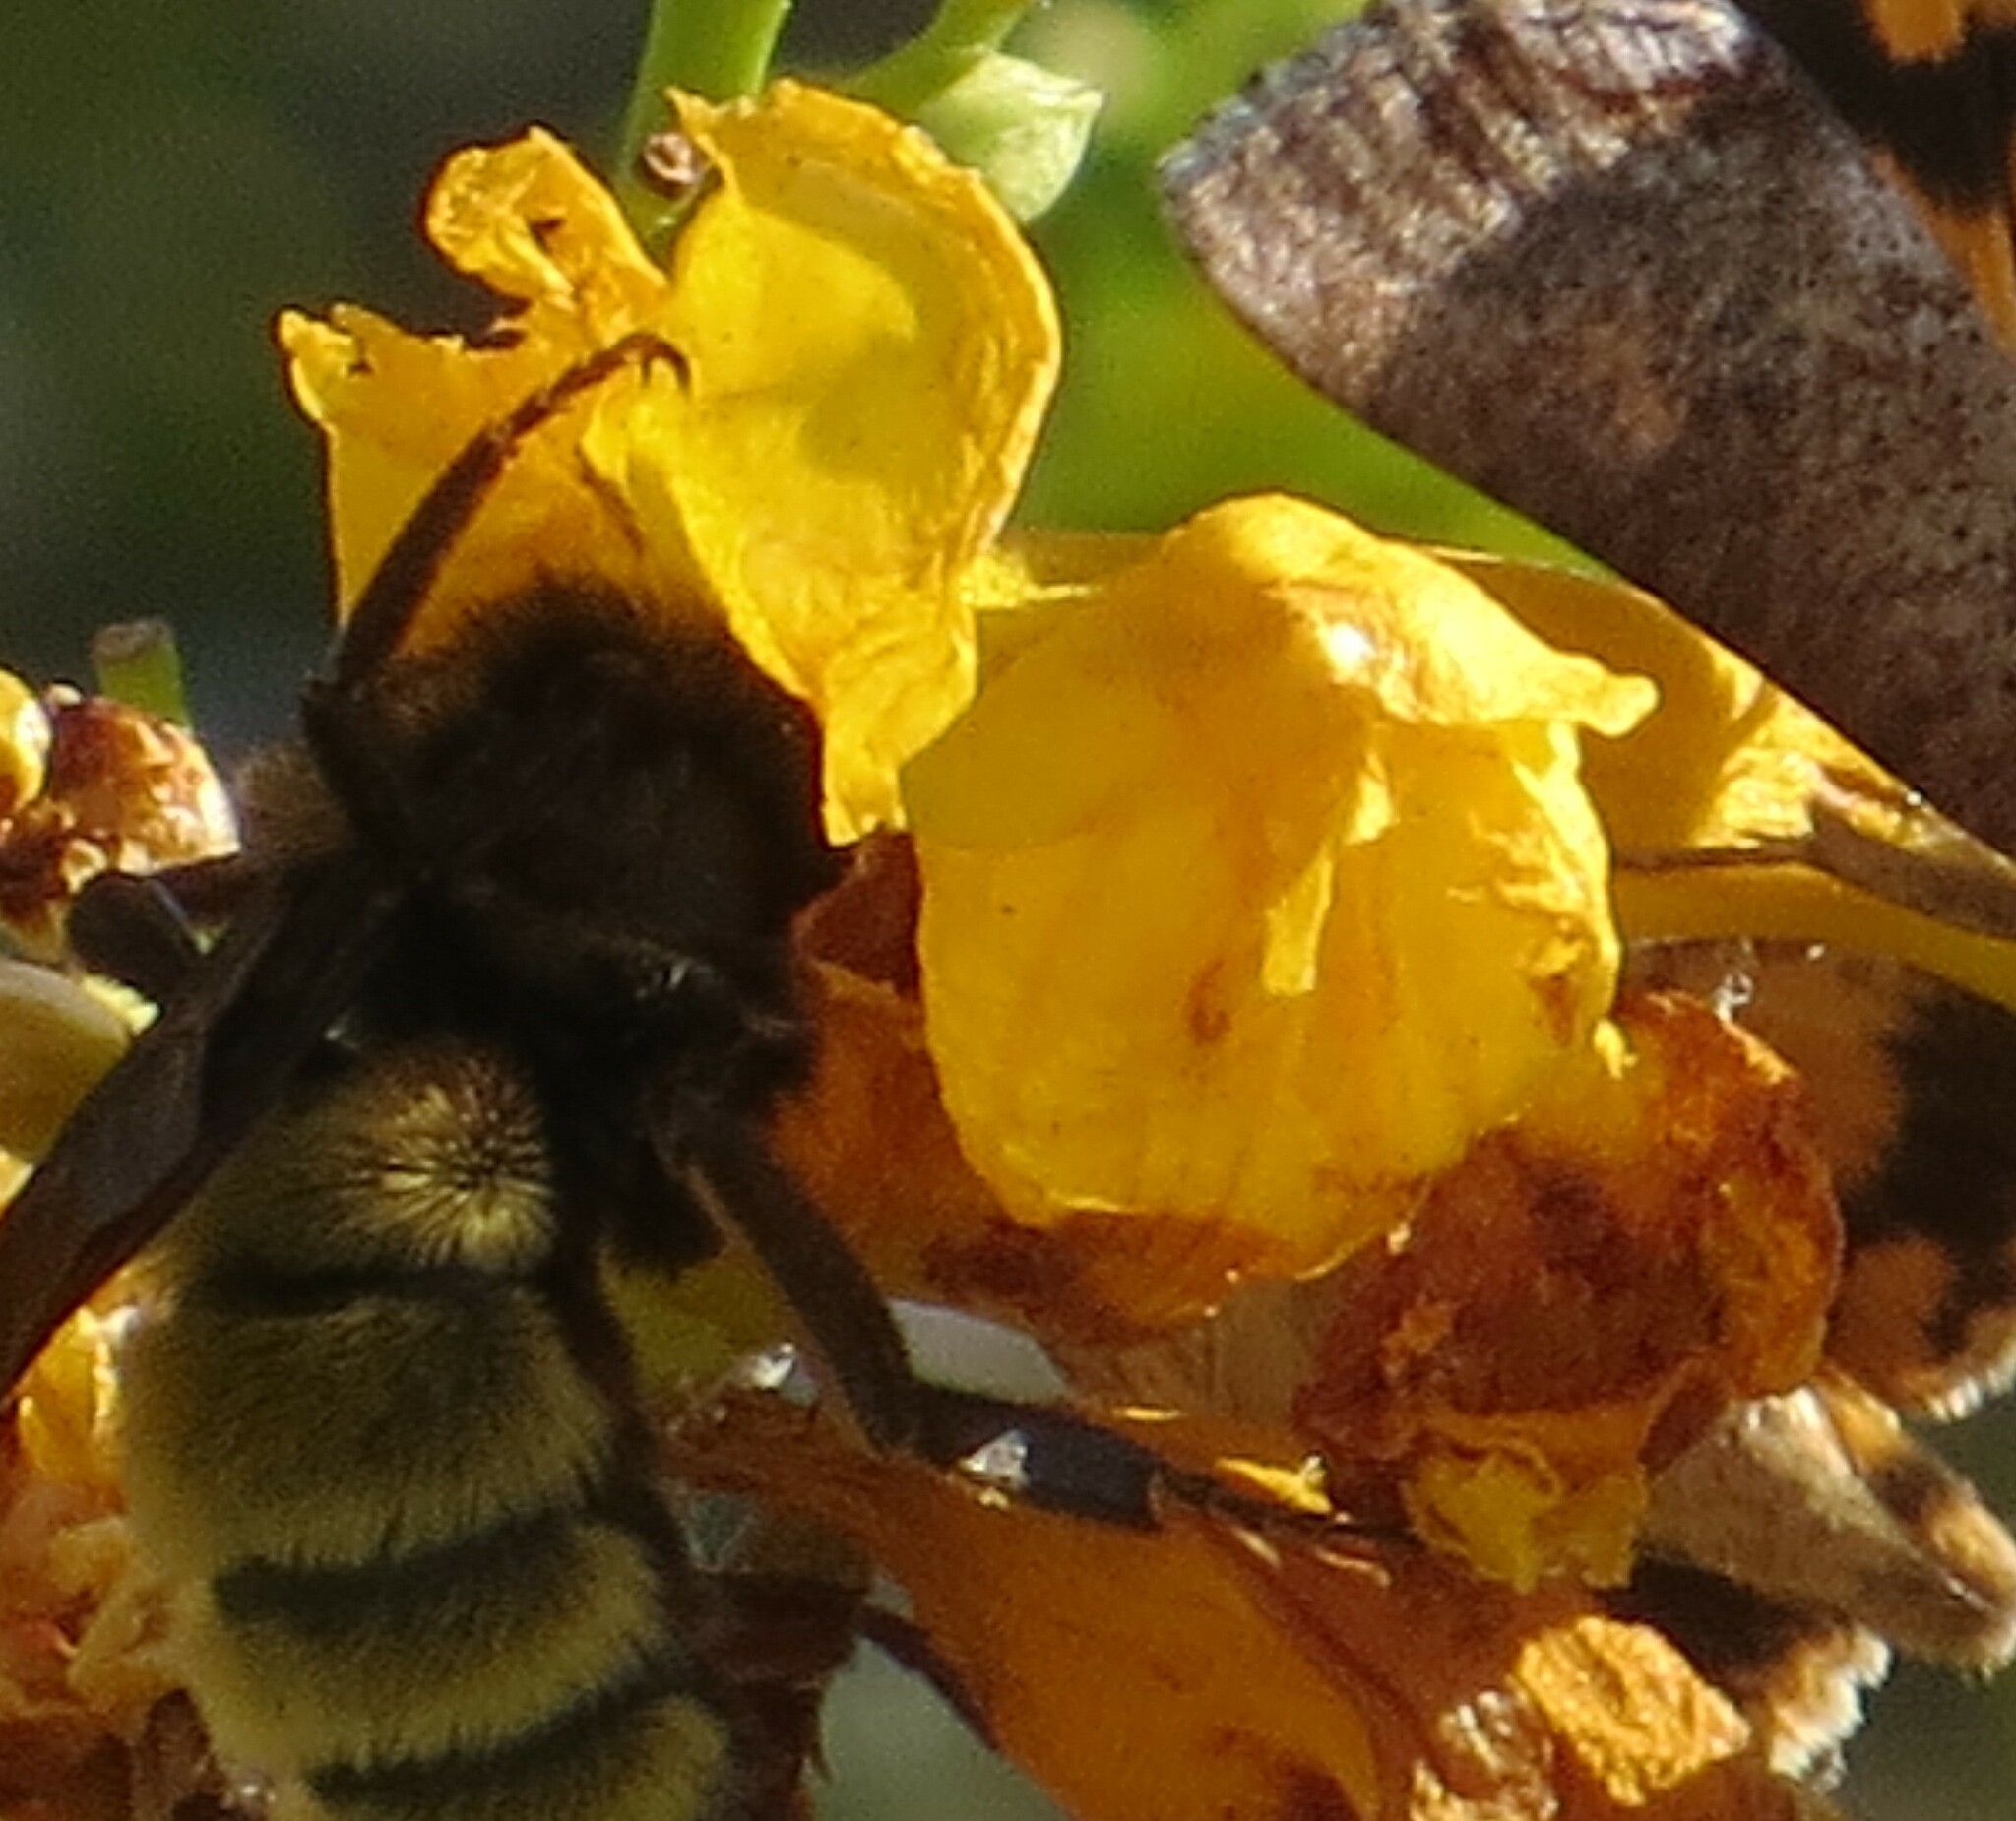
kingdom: Animalia
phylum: Arthropoda
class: Insecta
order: Hymenoptera
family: Apidae
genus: Bombus
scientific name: Bombus pensylvanicus
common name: Bumble bee
